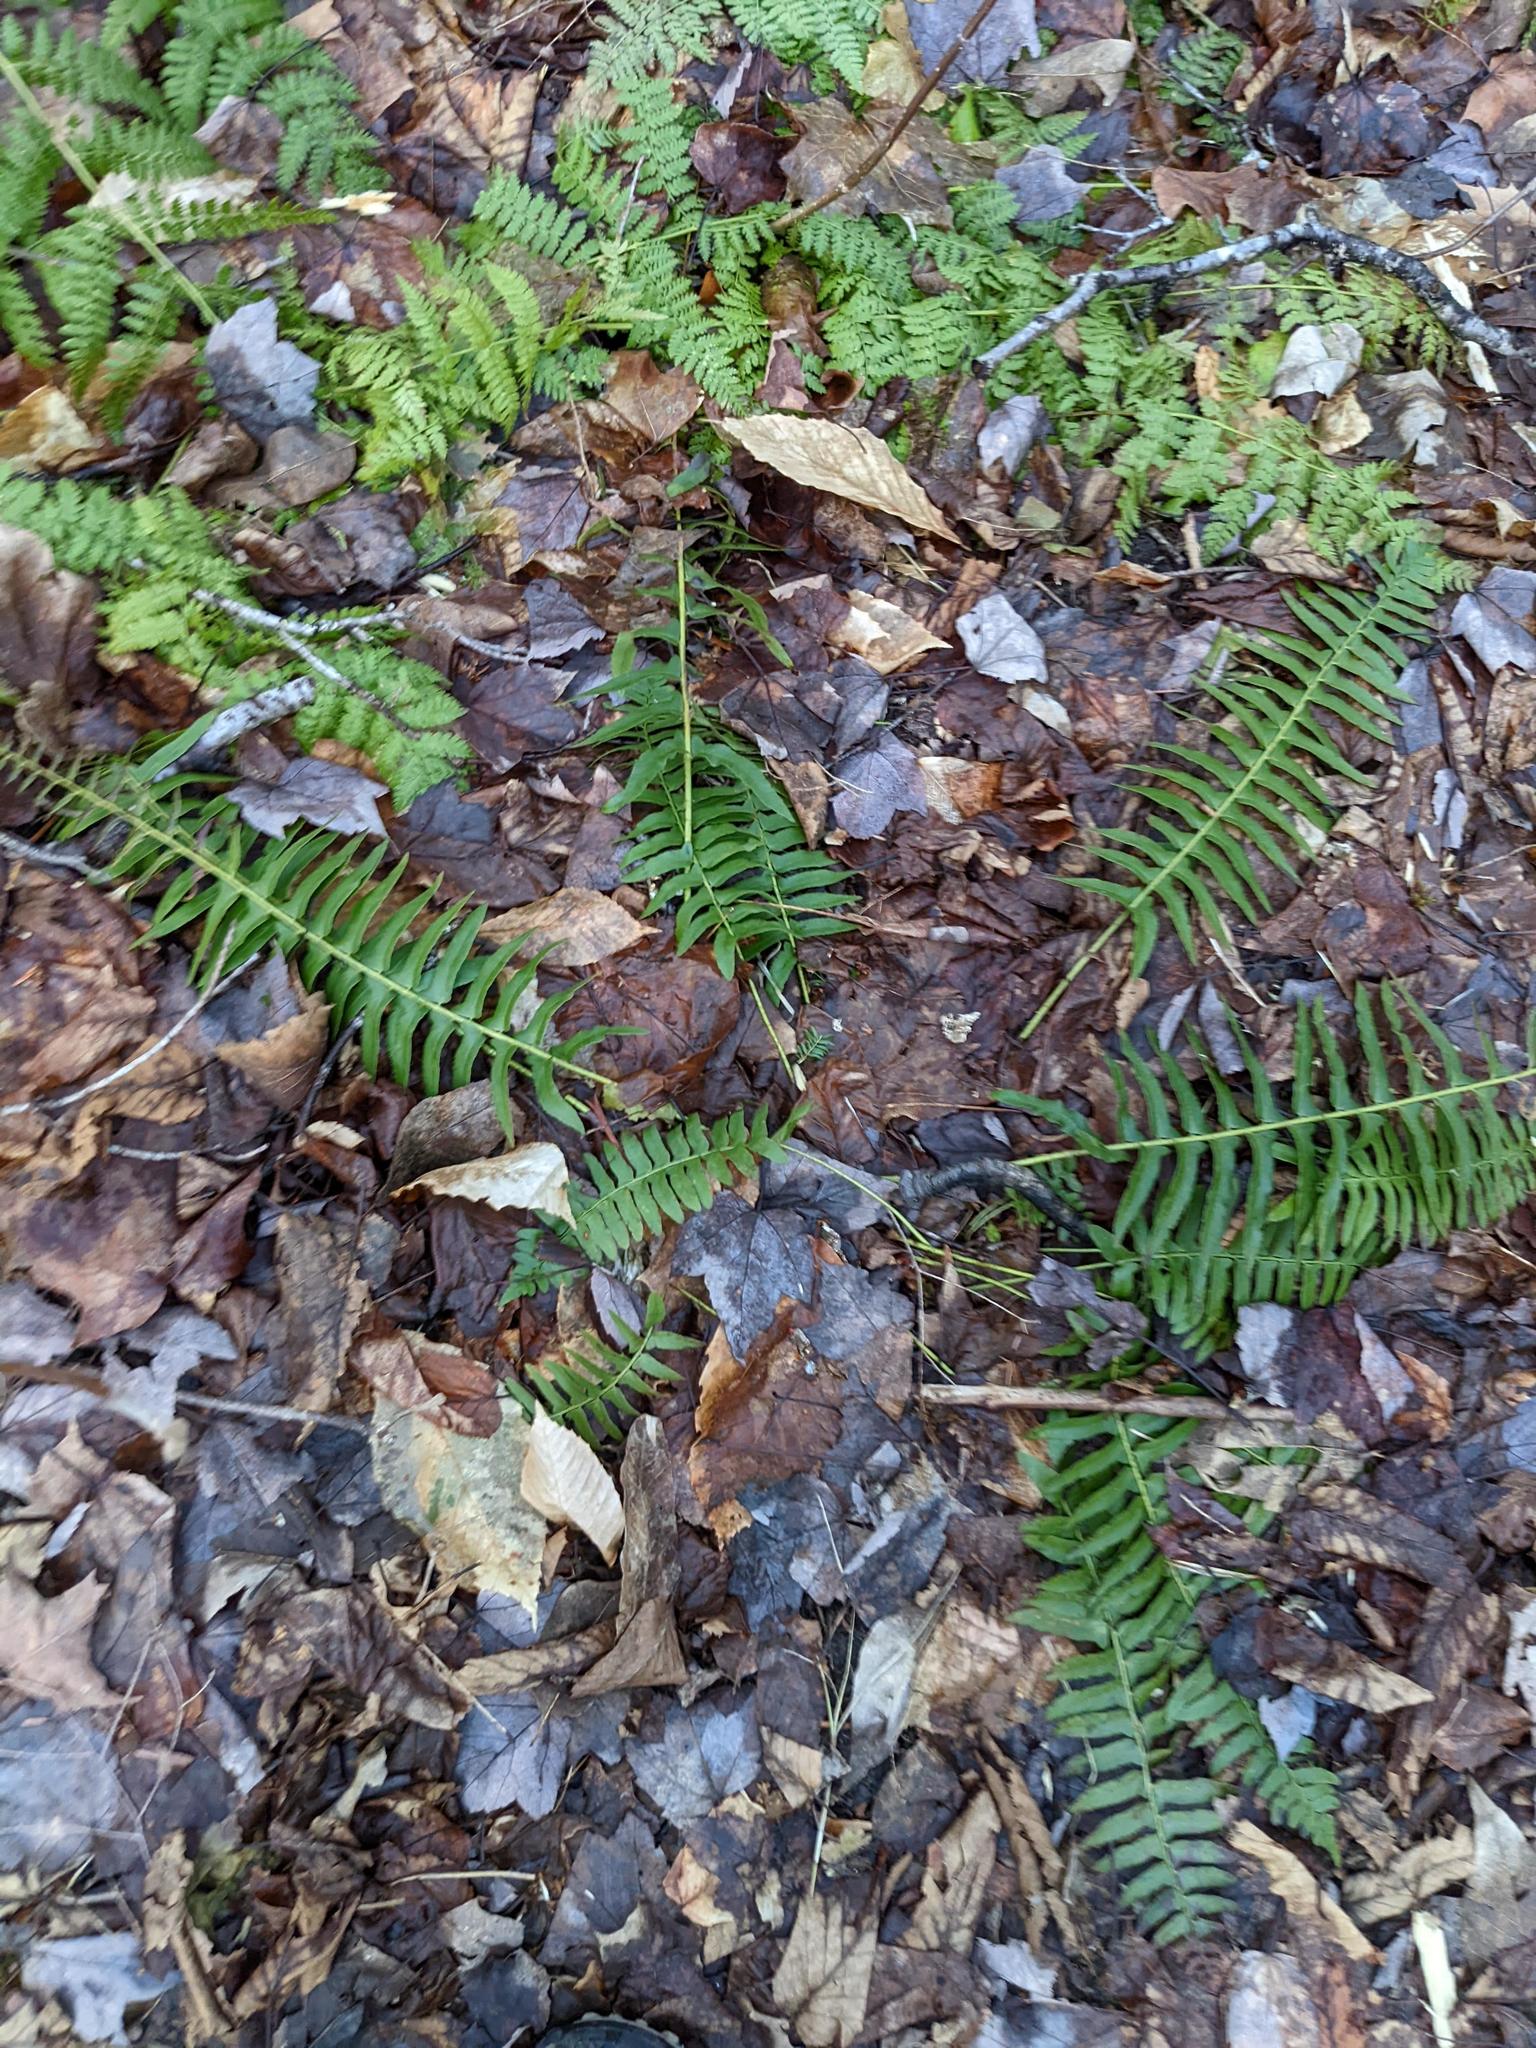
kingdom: Plantae
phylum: Tracheophyta
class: Polypodiopsida
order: Polypodiales
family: Dryopteridaceae
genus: Polystichum
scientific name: Polystichum acrostichoides
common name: Christmas fern
